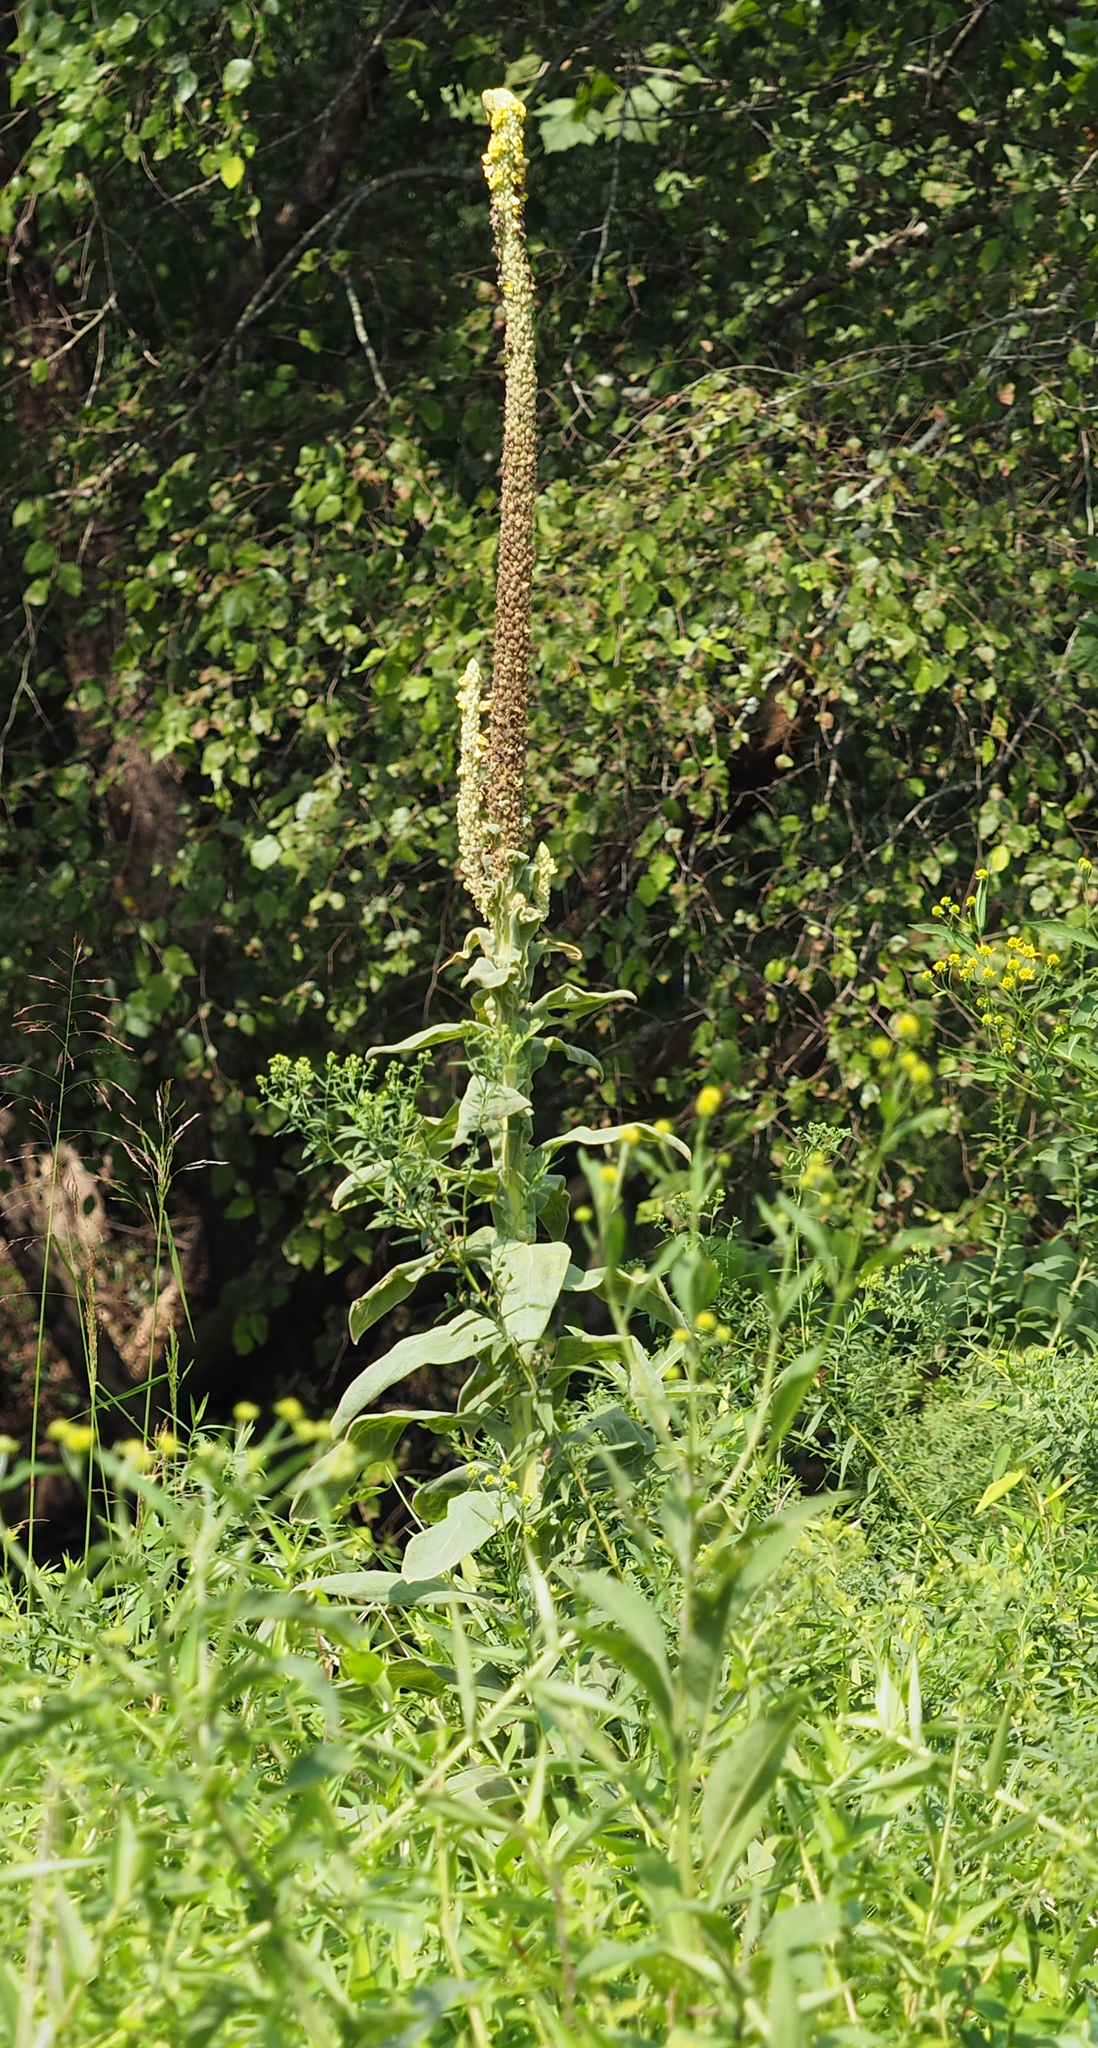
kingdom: Plantae
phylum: Tracheophyta
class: Magnoliopsida
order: Lamiales
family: Scrophulariaceae
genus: Verbascum
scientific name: Verbascum thapsus
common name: Common mullein
